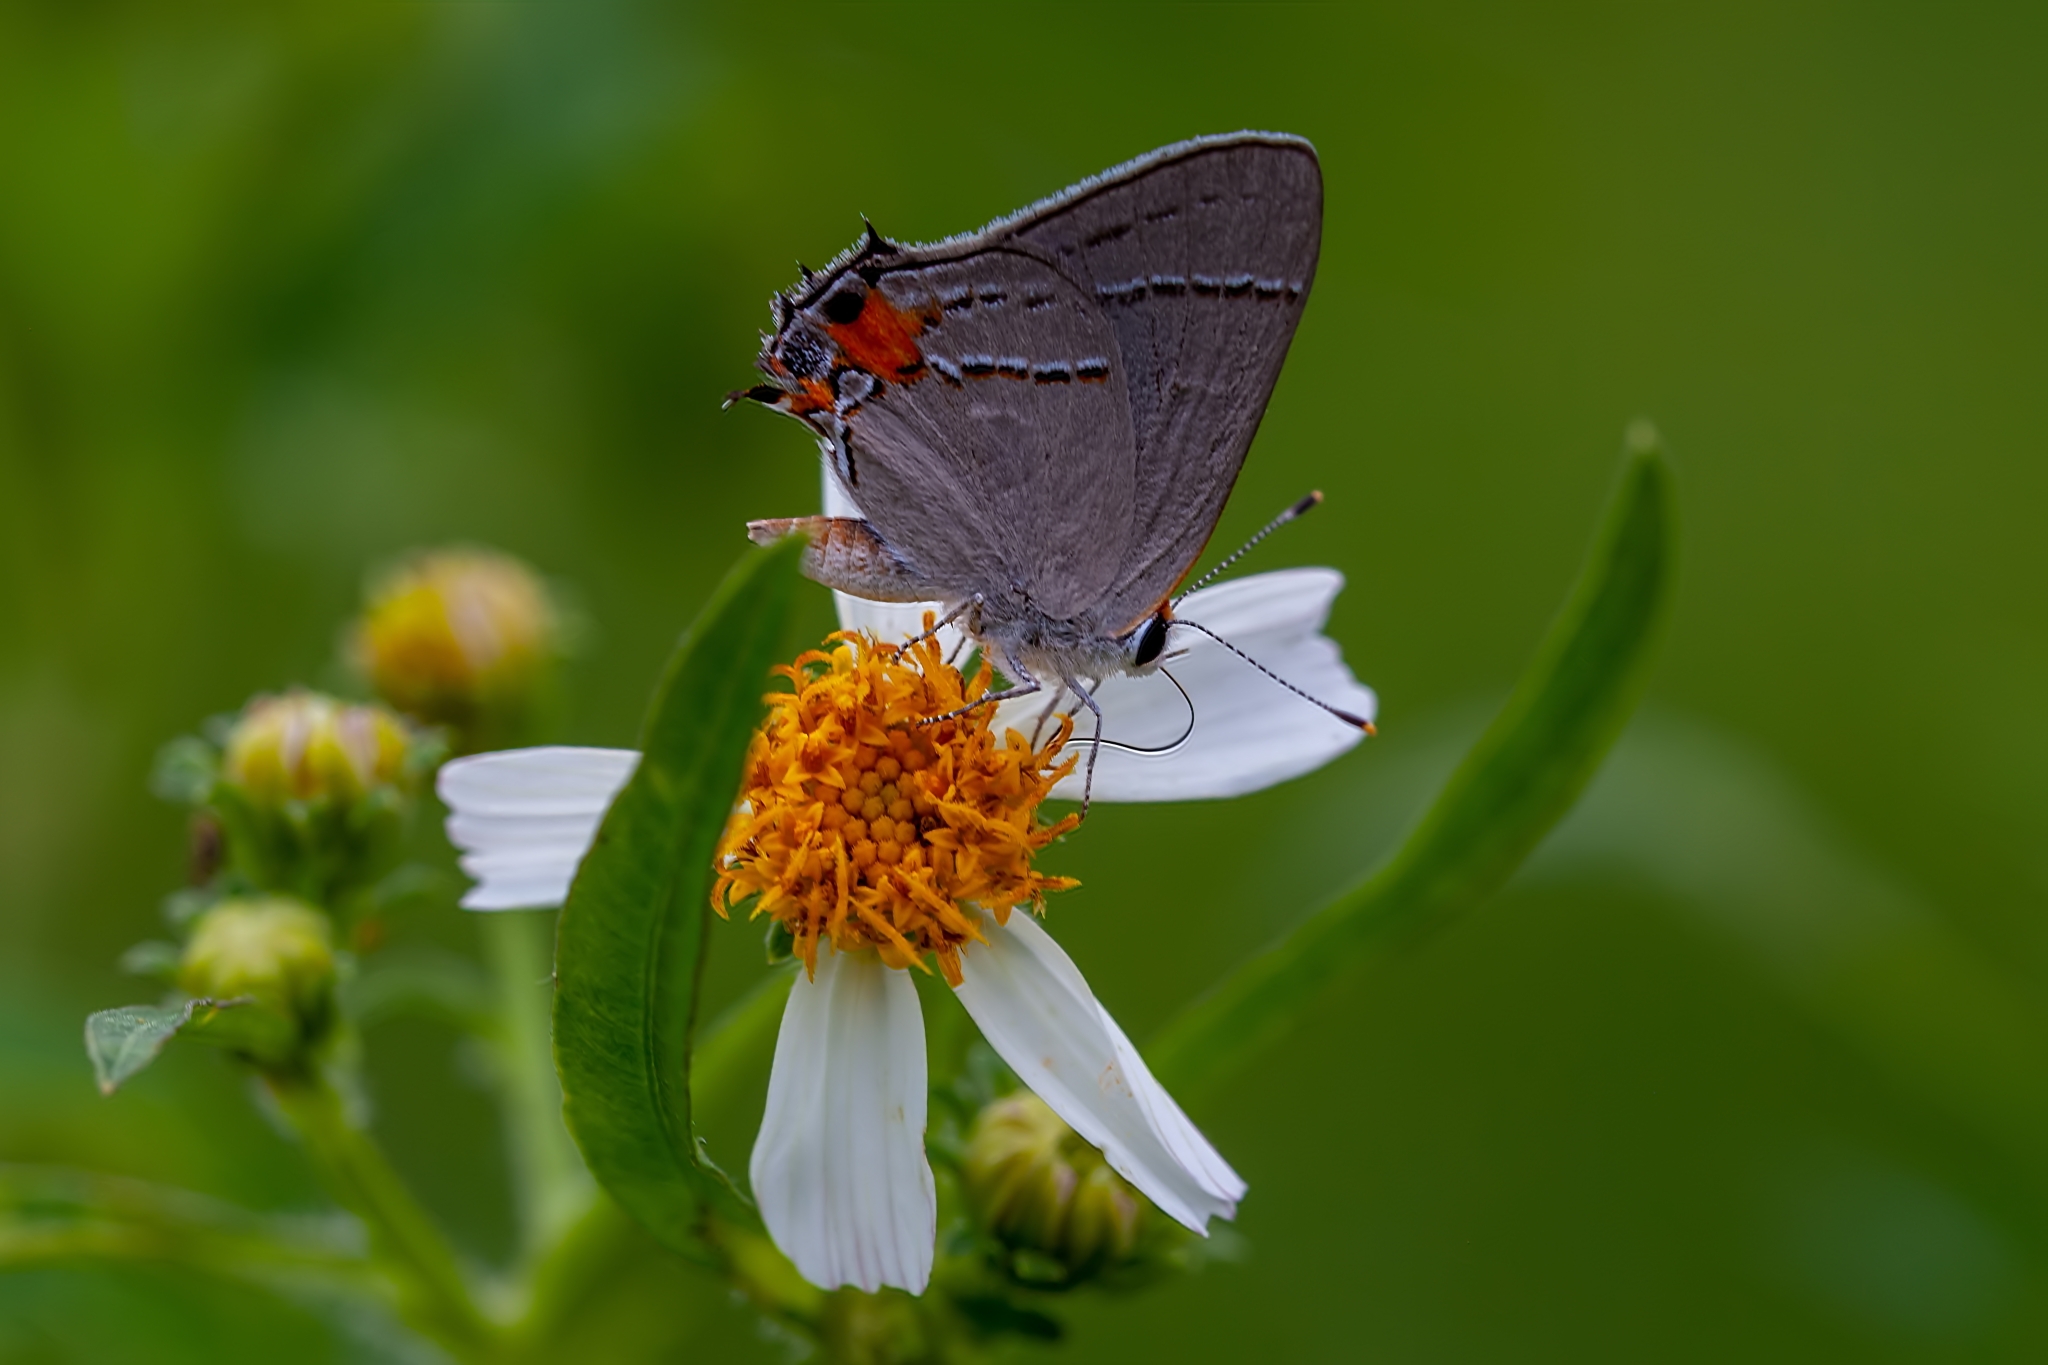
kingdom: Animalia
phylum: Arthropoda
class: Insecta
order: Lepidoptera
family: Lycaenidae
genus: Strymon
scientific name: Strymon melinus
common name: Gray hairstreak
